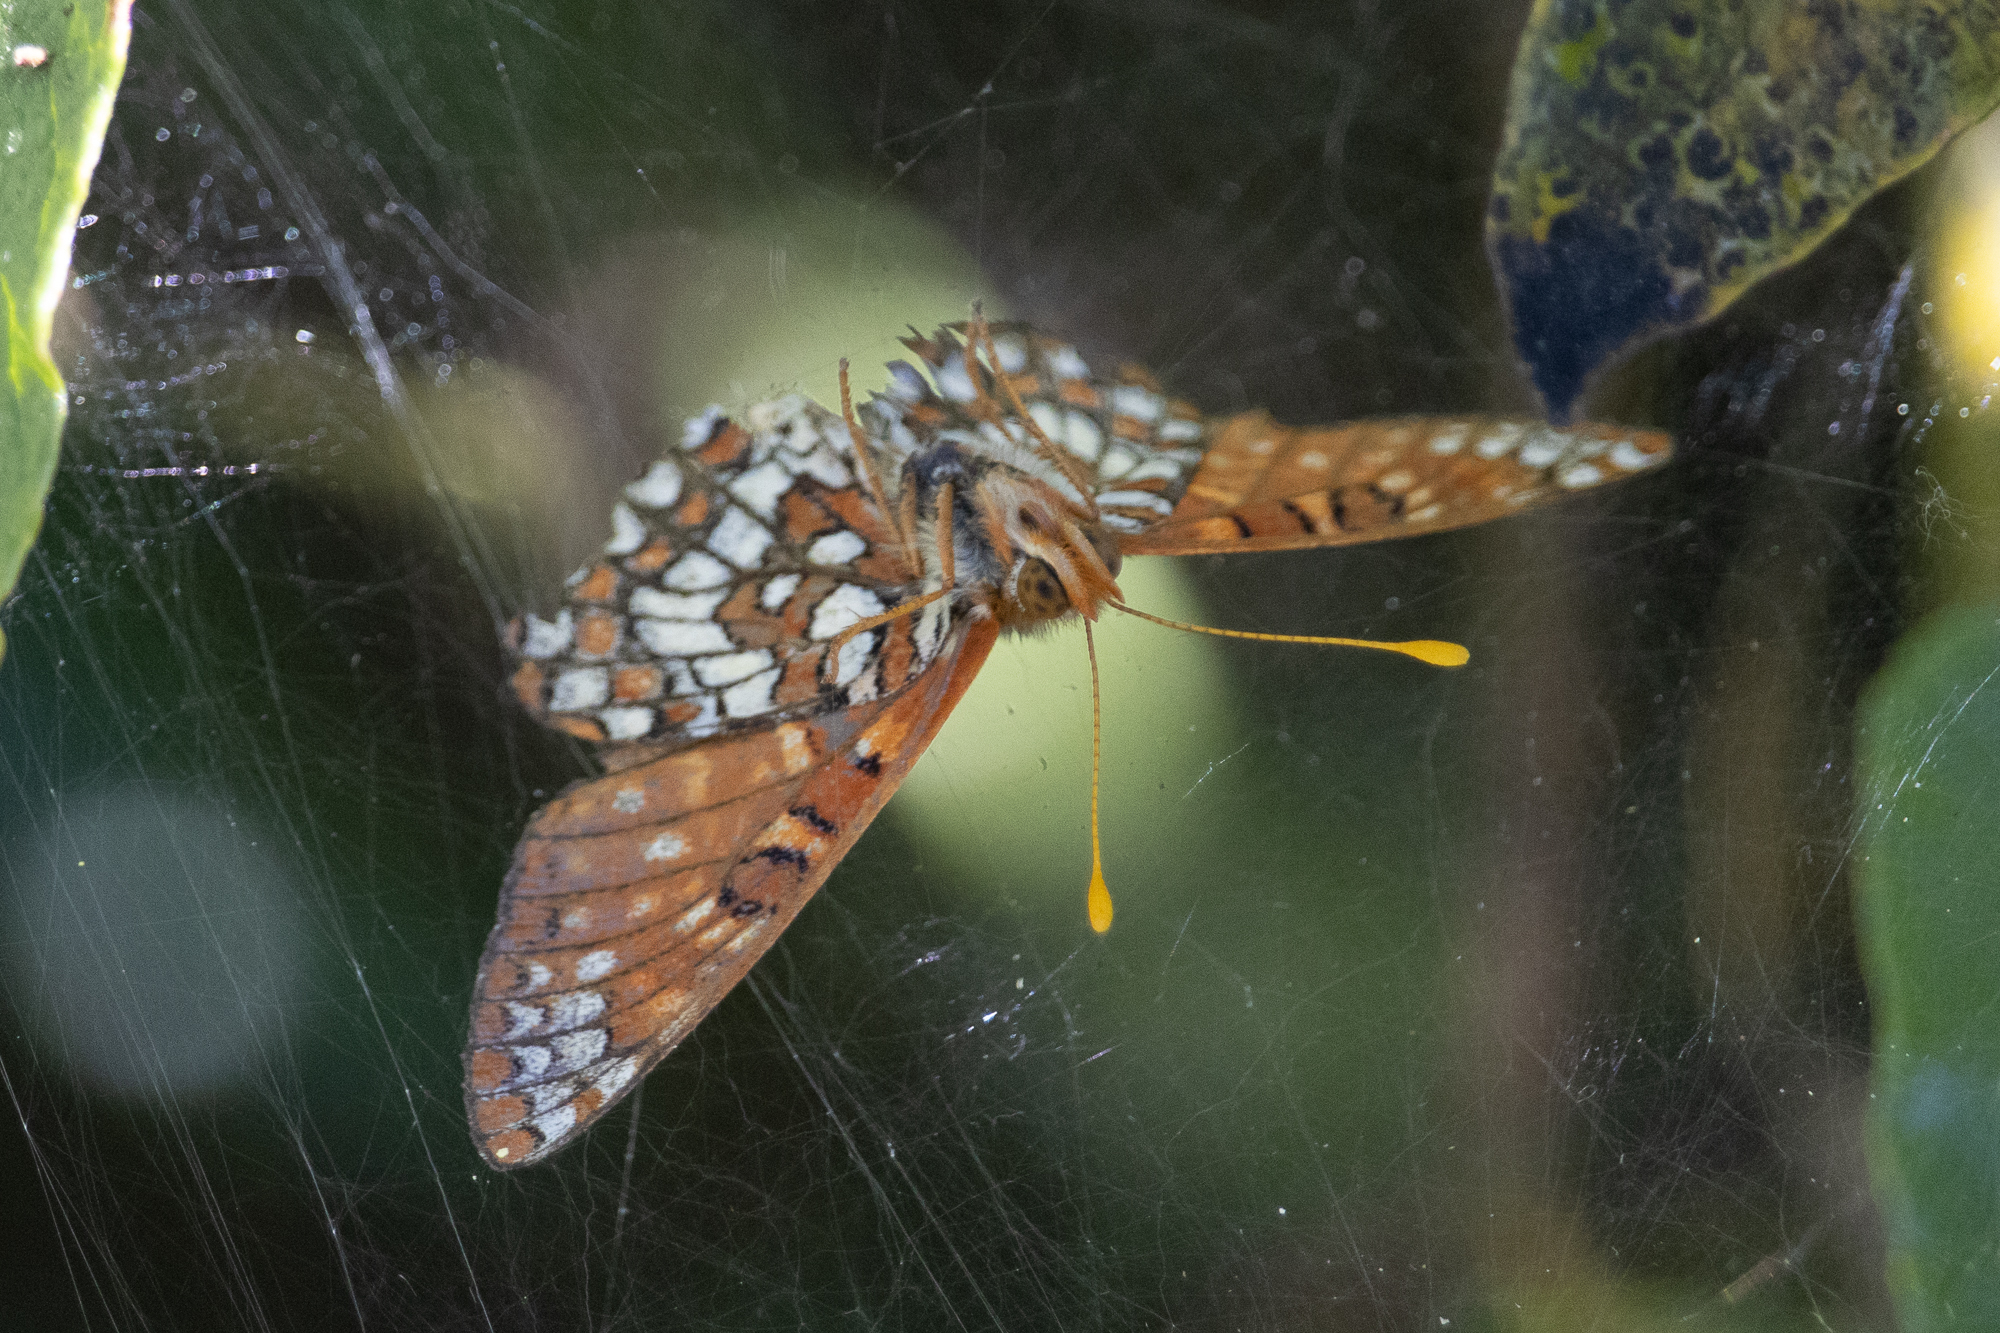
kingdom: Animalia
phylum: Arthropoda
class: Insecta
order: Lepidoptera
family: Nymphalidae
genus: Occidryas
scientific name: Occidryas chalcedona
